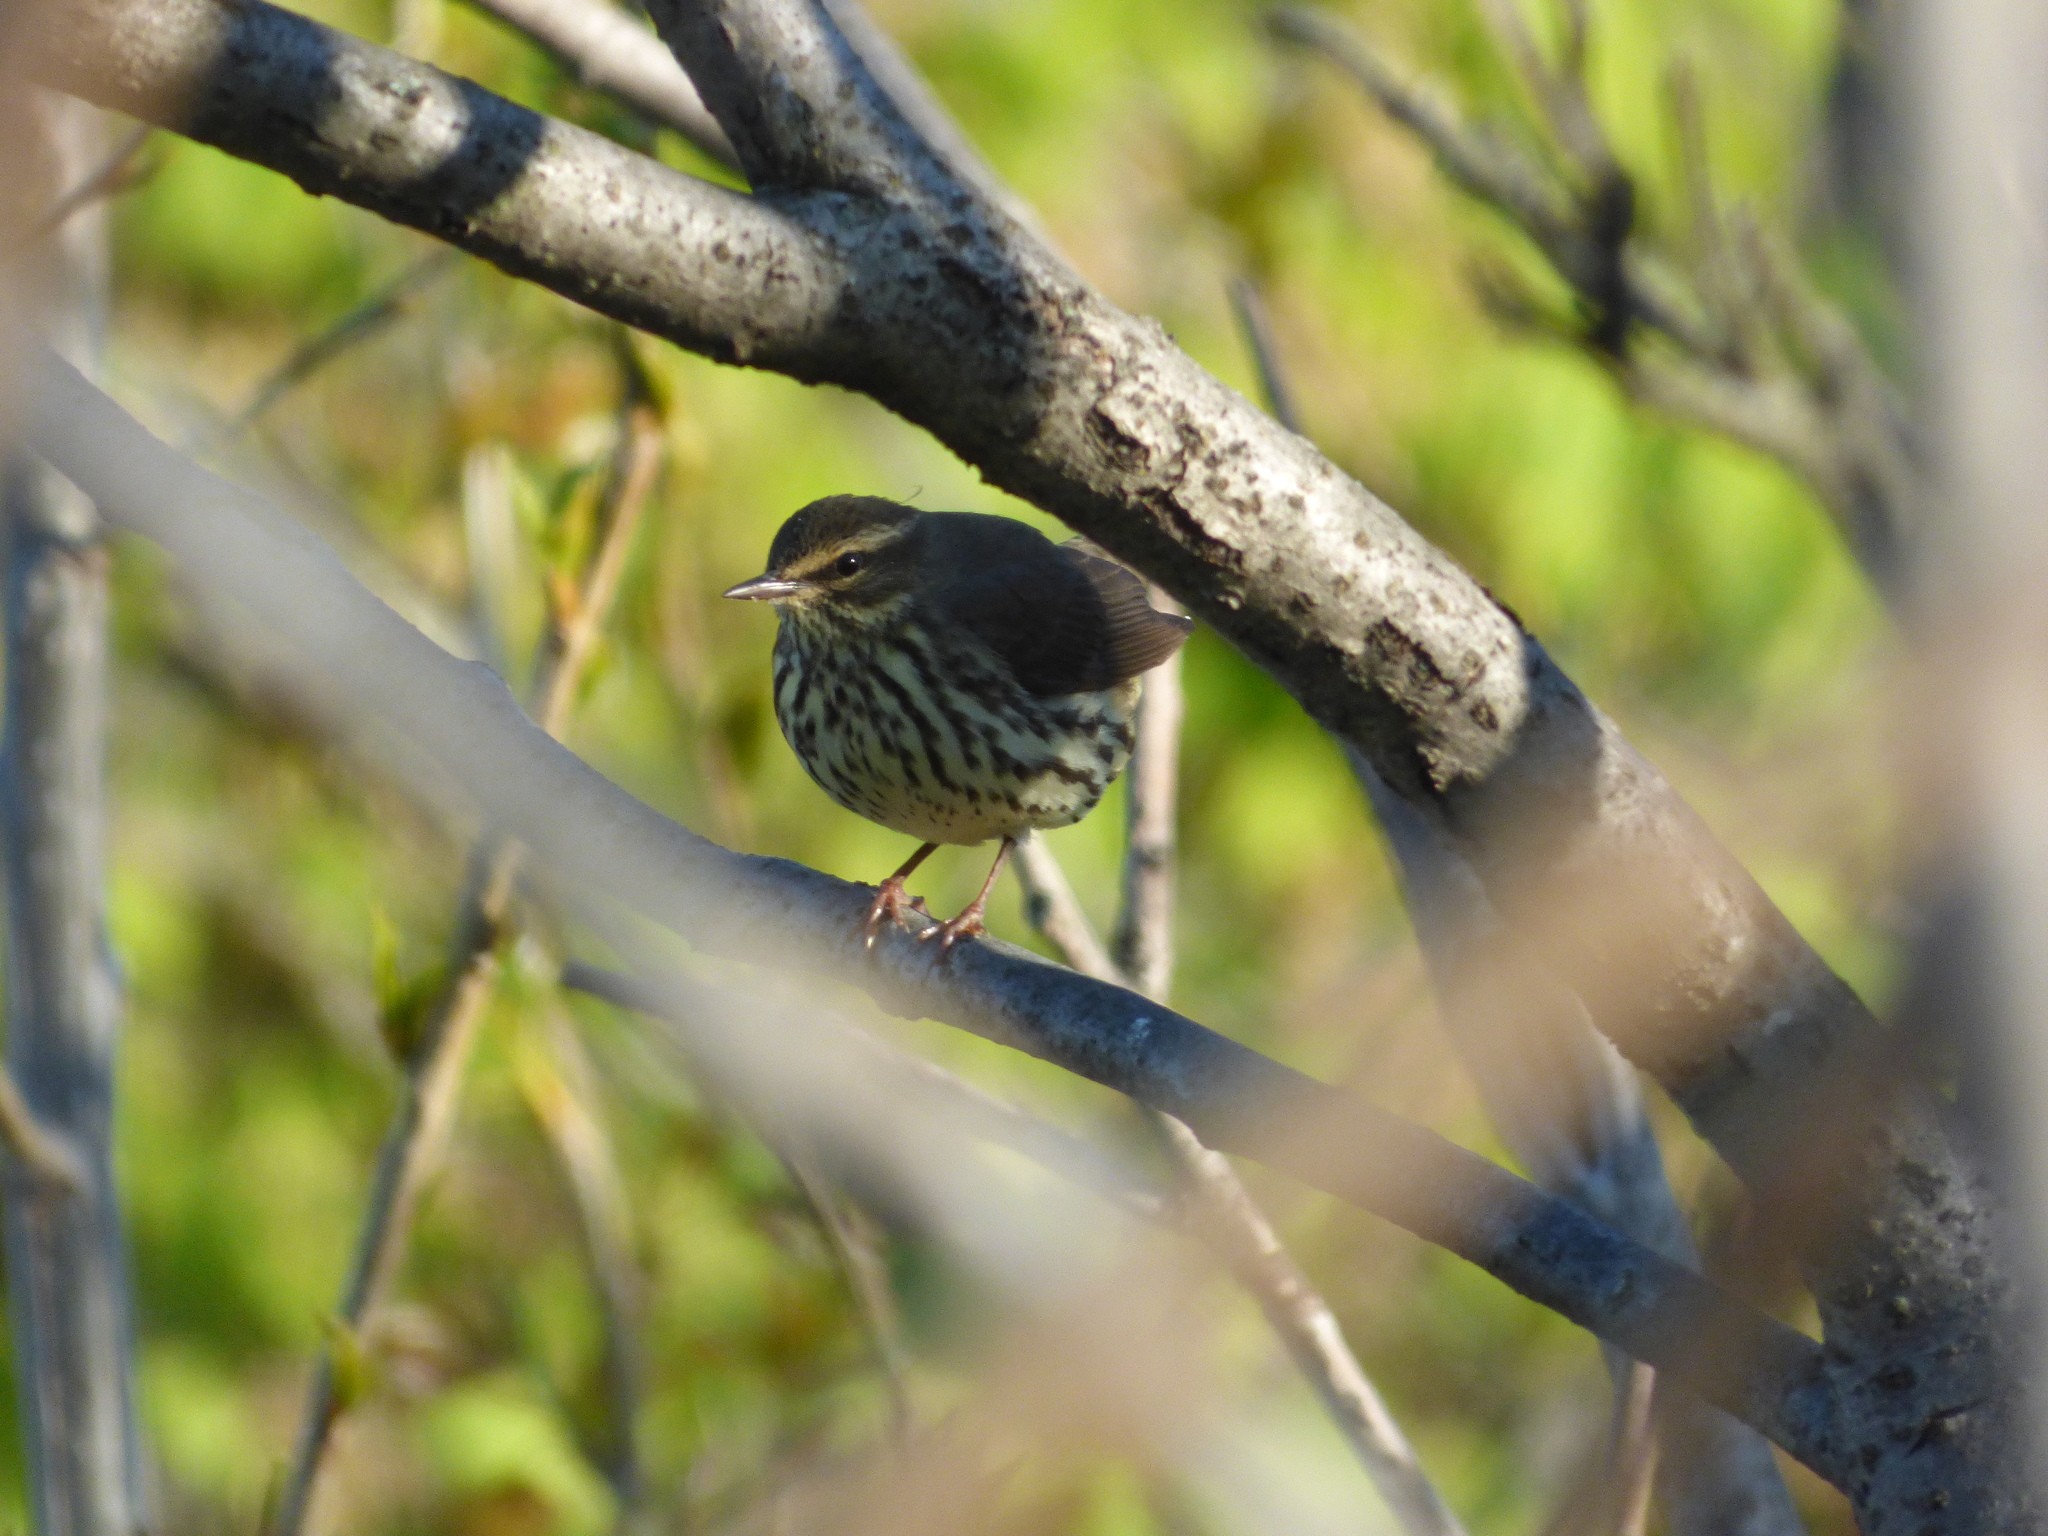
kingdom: Animalia
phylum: Chordata
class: Aves
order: Passeriformes
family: Parulidae
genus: Parkesia
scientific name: Parkesia noveboracensis
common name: Northern waterthrush
